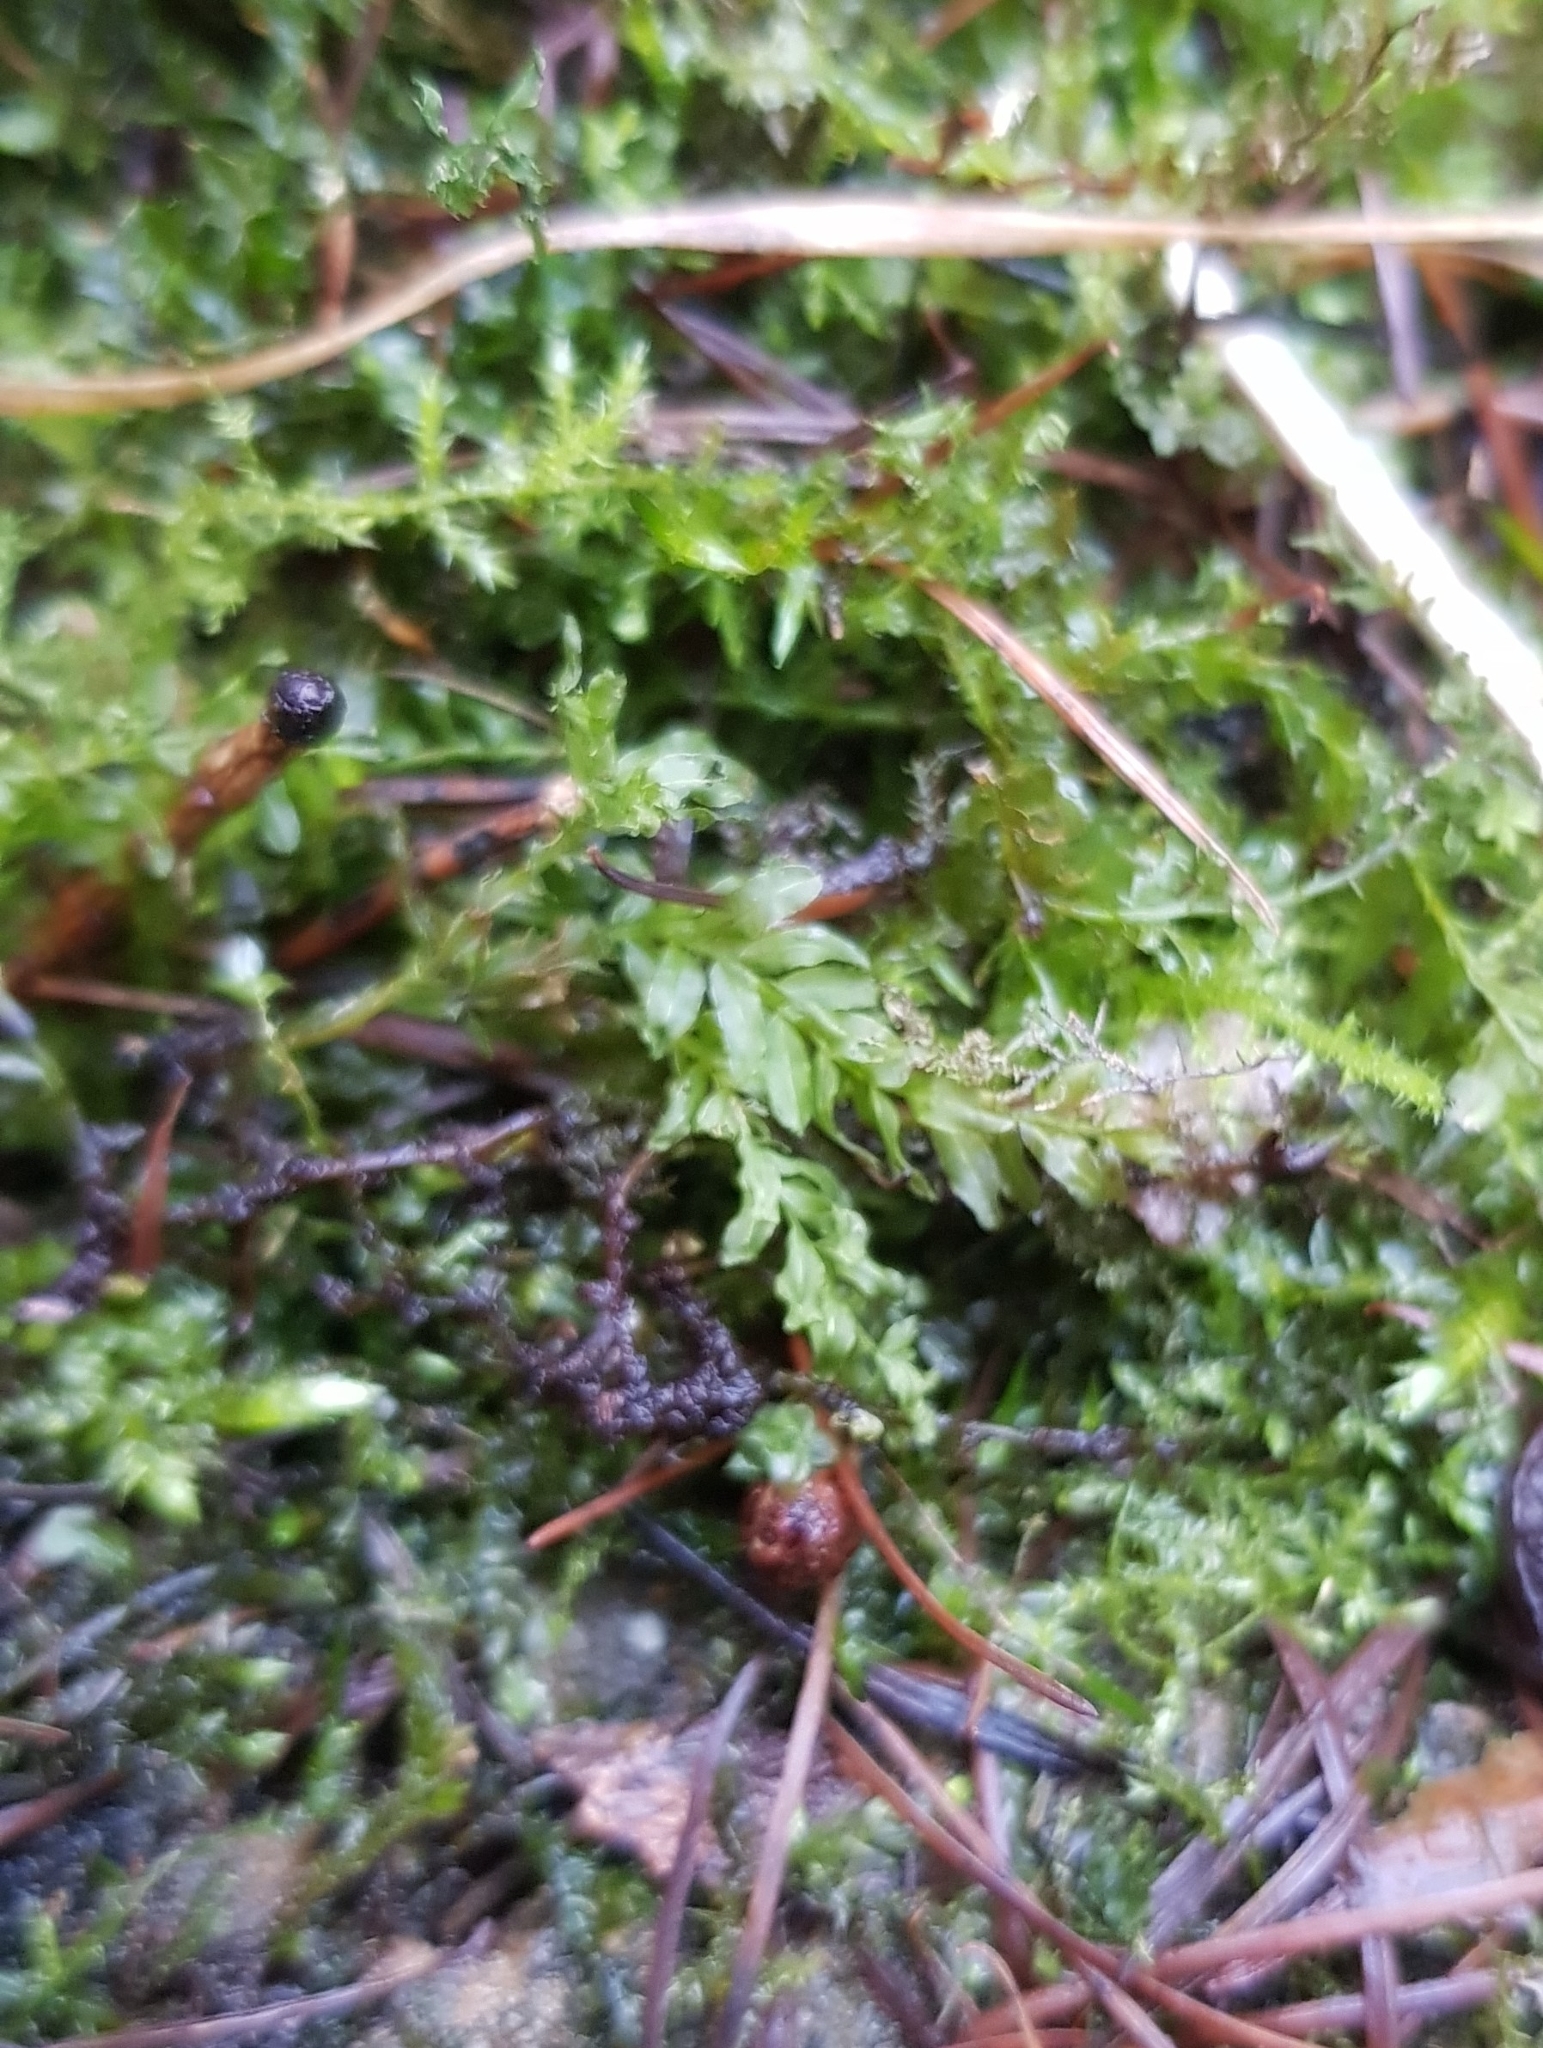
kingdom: Plantae
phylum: Bryophyta
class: Bryopsida
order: Bryales
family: Mniaceae
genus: Plagiomnium
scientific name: Plagiomnium undulatum
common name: Hart's-tongue thyme-moss
